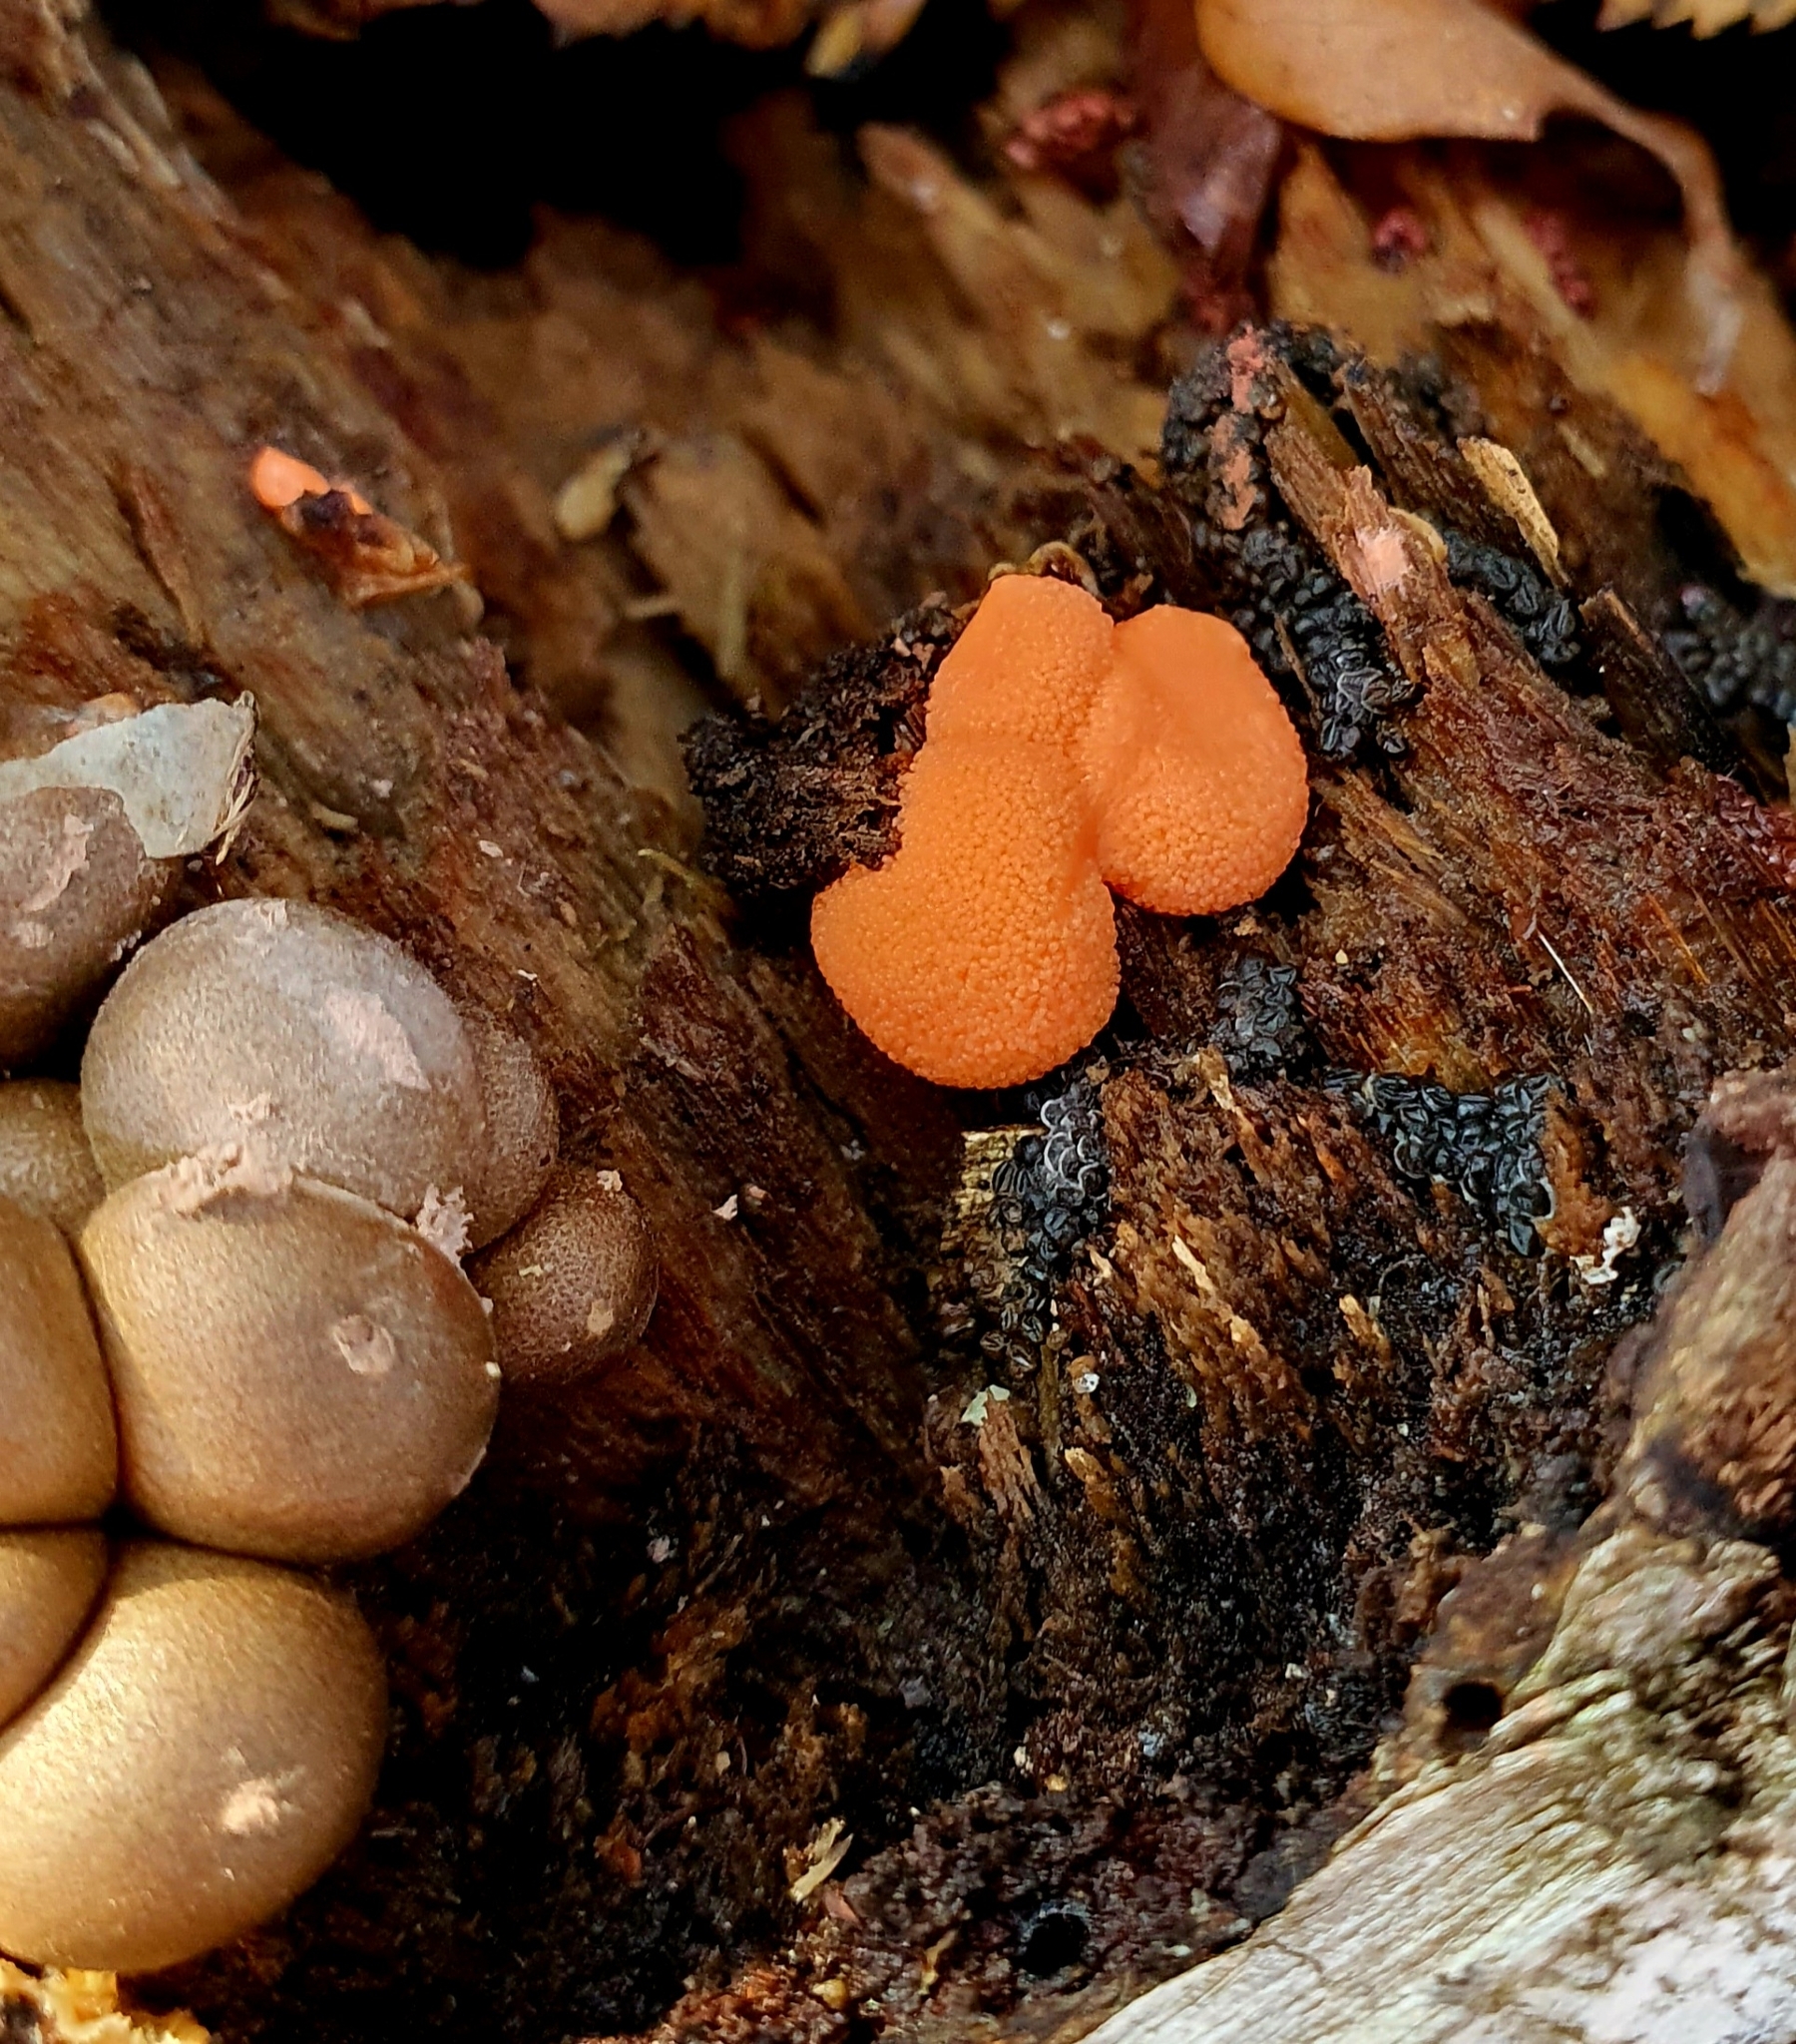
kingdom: Protozoa
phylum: Mycetozoa
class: Myxomycetes
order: Cribrariales
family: Tubiferaceae
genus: Lycogala
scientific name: Lycogala epidendrum
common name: Wolf's milk
